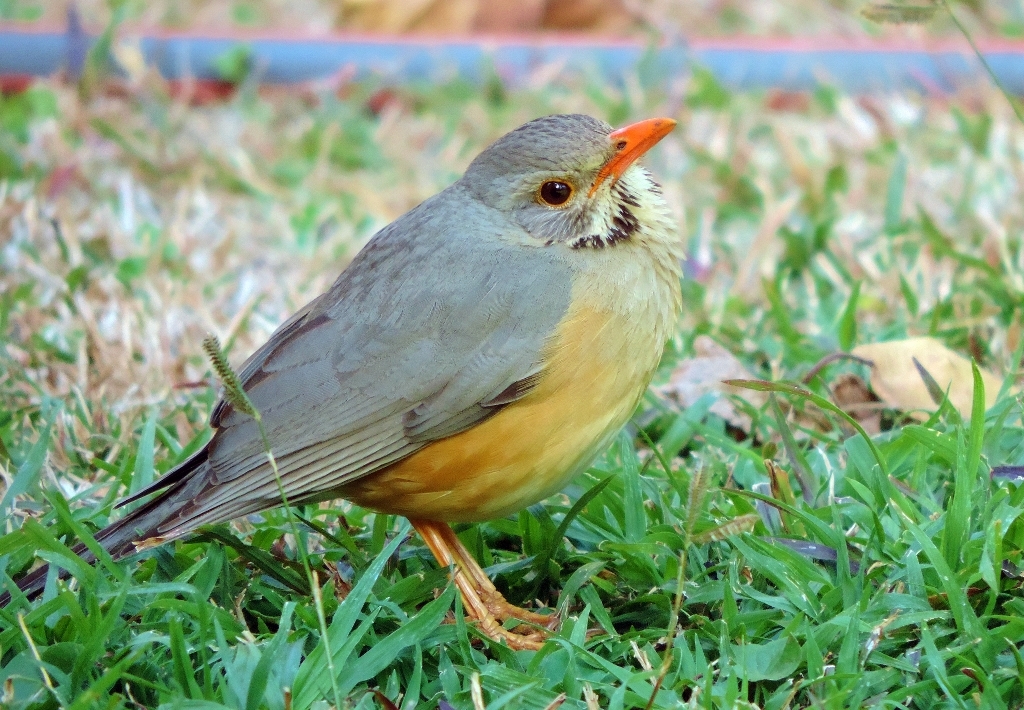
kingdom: Animalia
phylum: Chordata
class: Aves
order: Passeriformes
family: Turdidae
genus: Turdus
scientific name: Turdus libonyana
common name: Kurrichane thrush
